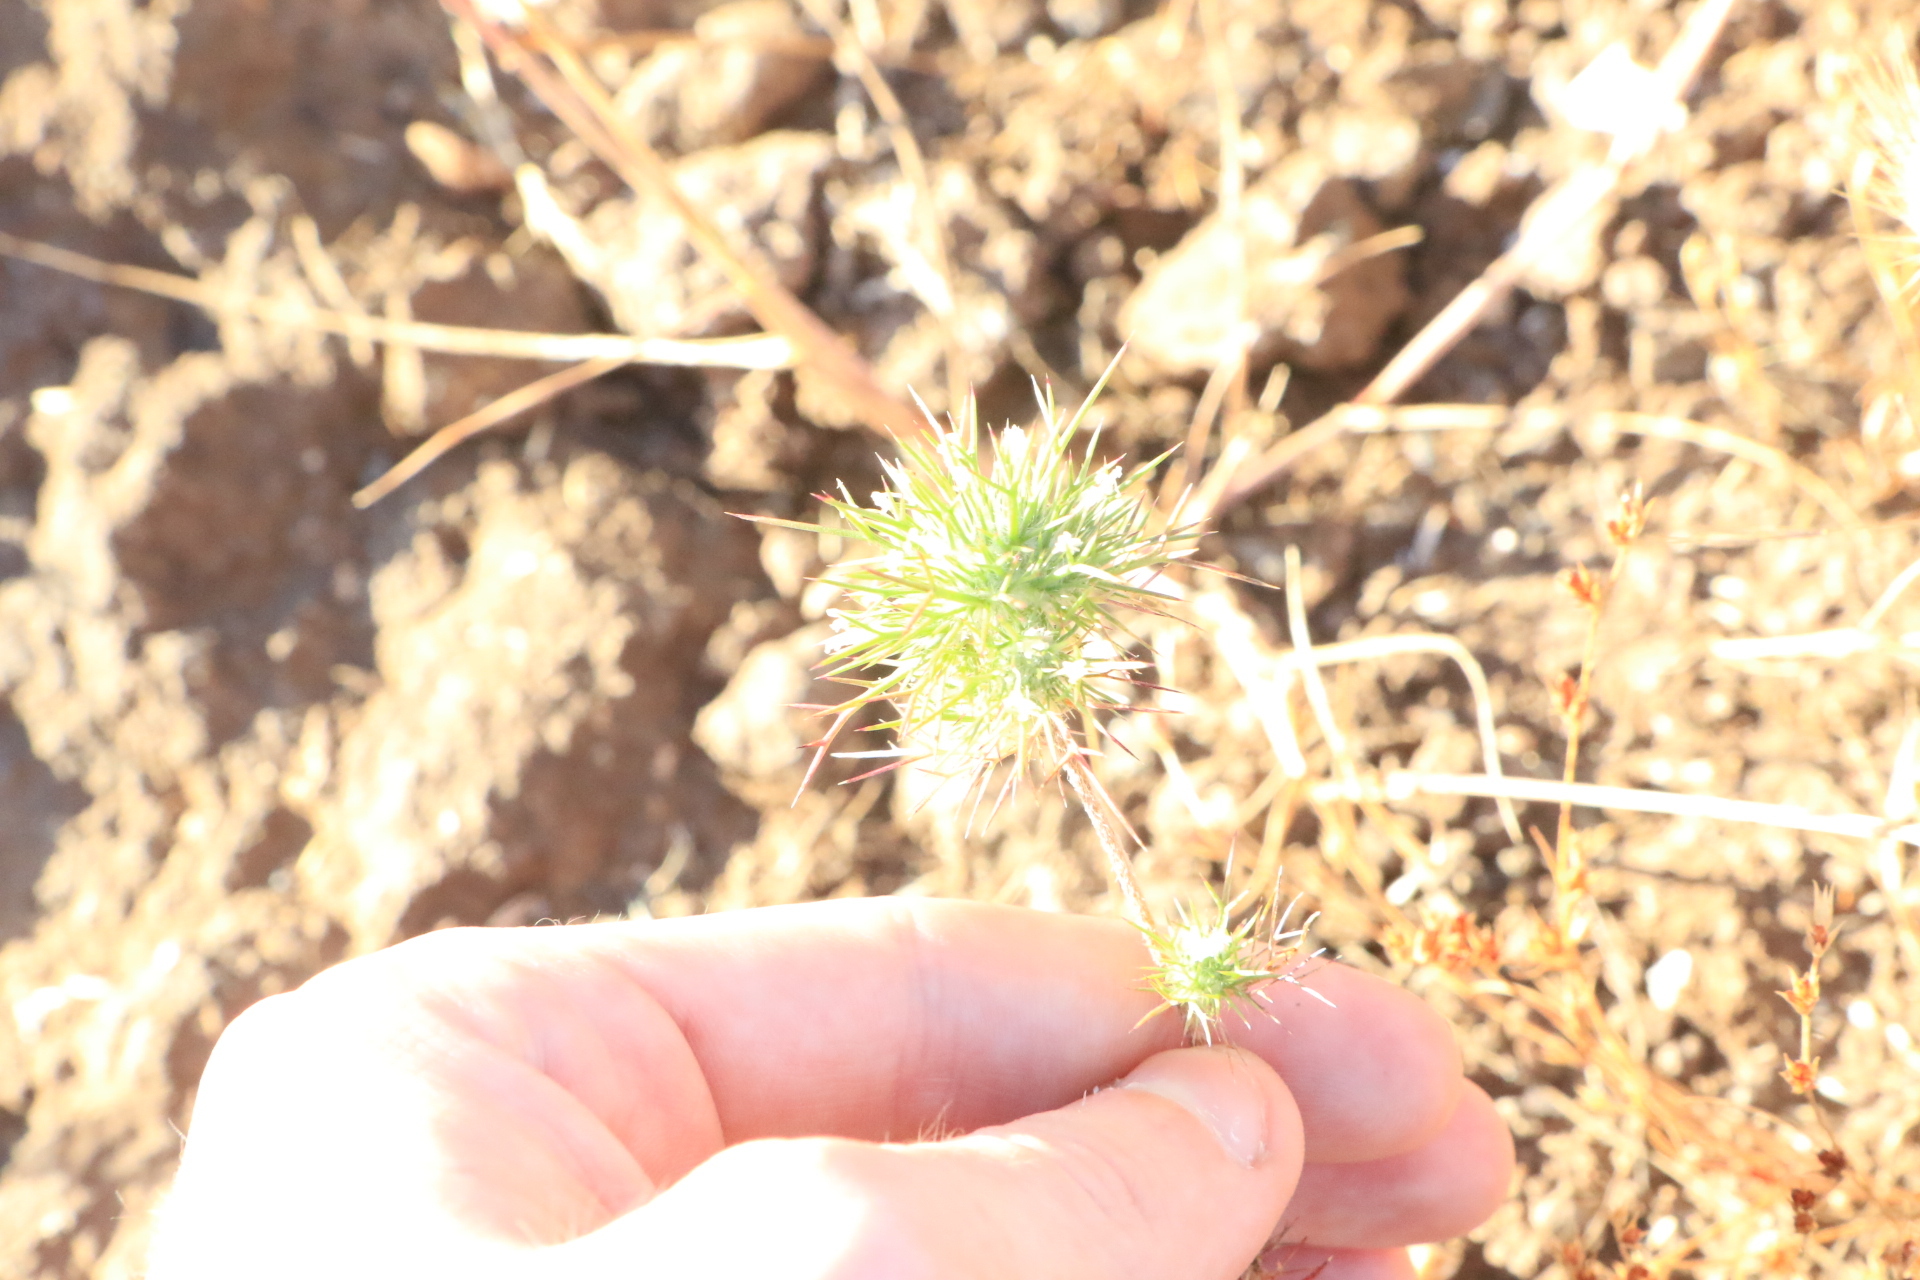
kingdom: Plantae
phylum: Tracheophyta
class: Magnoliopsida
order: Ericales
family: Polemoniaceae
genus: Navarretia
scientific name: Navarretia intertexta
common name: Needle-leaved navarretia
